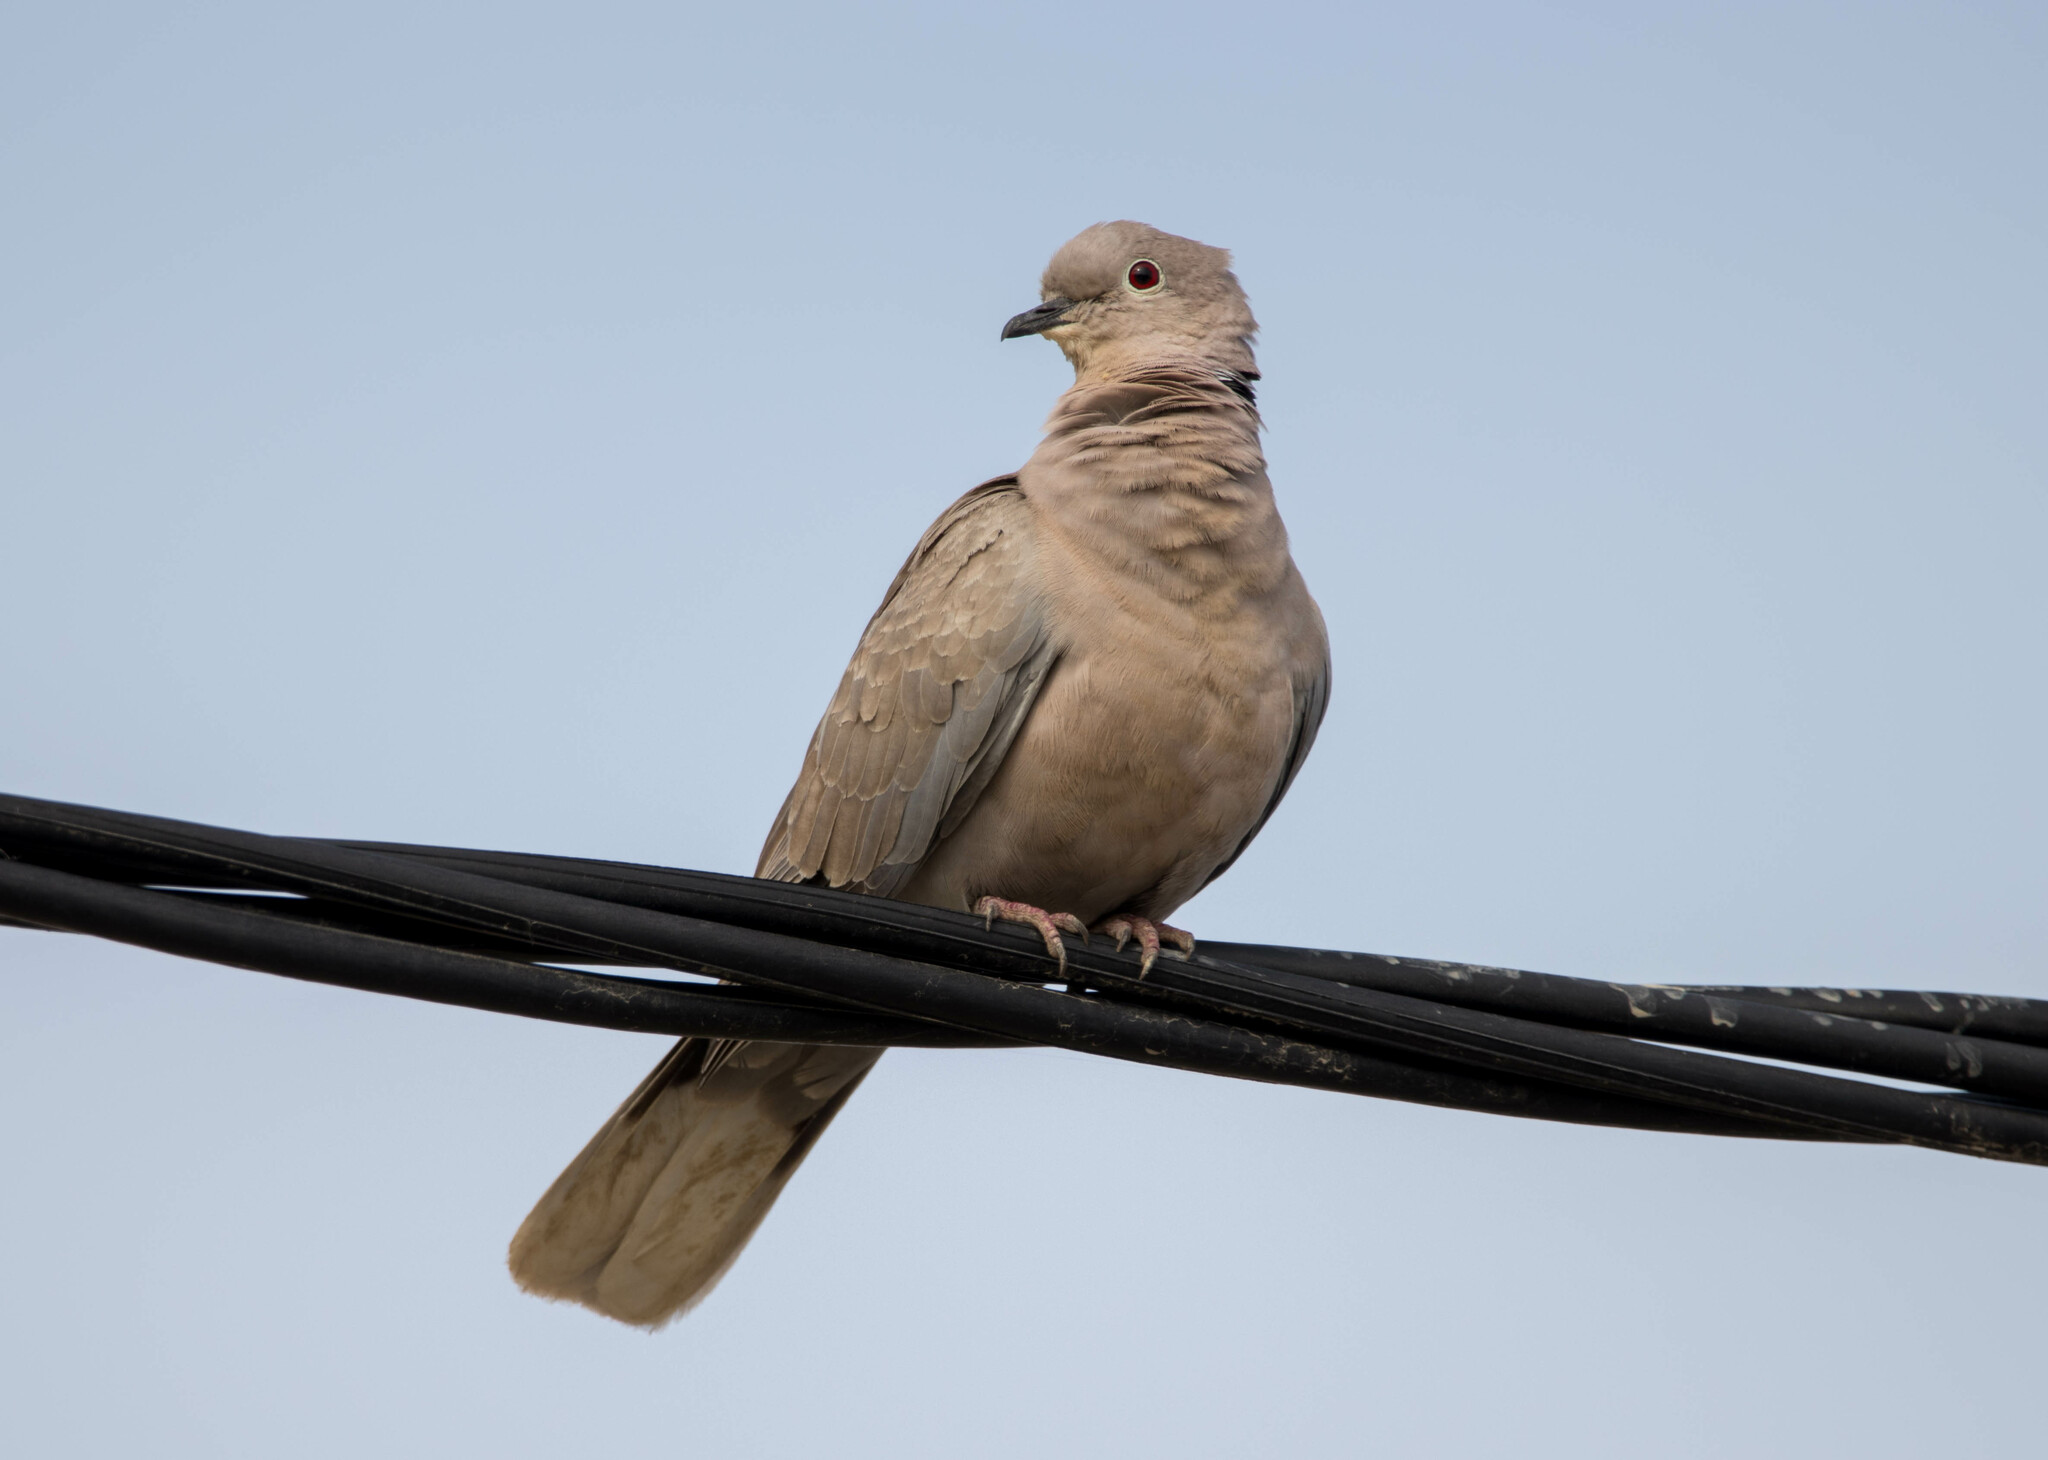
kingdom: Animalia
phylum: Chordata
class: Aves
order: Columbiformes
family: Columbidae
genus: Streptopelia
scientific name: Streptopelia decaocto
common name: Eurasian collared dove
